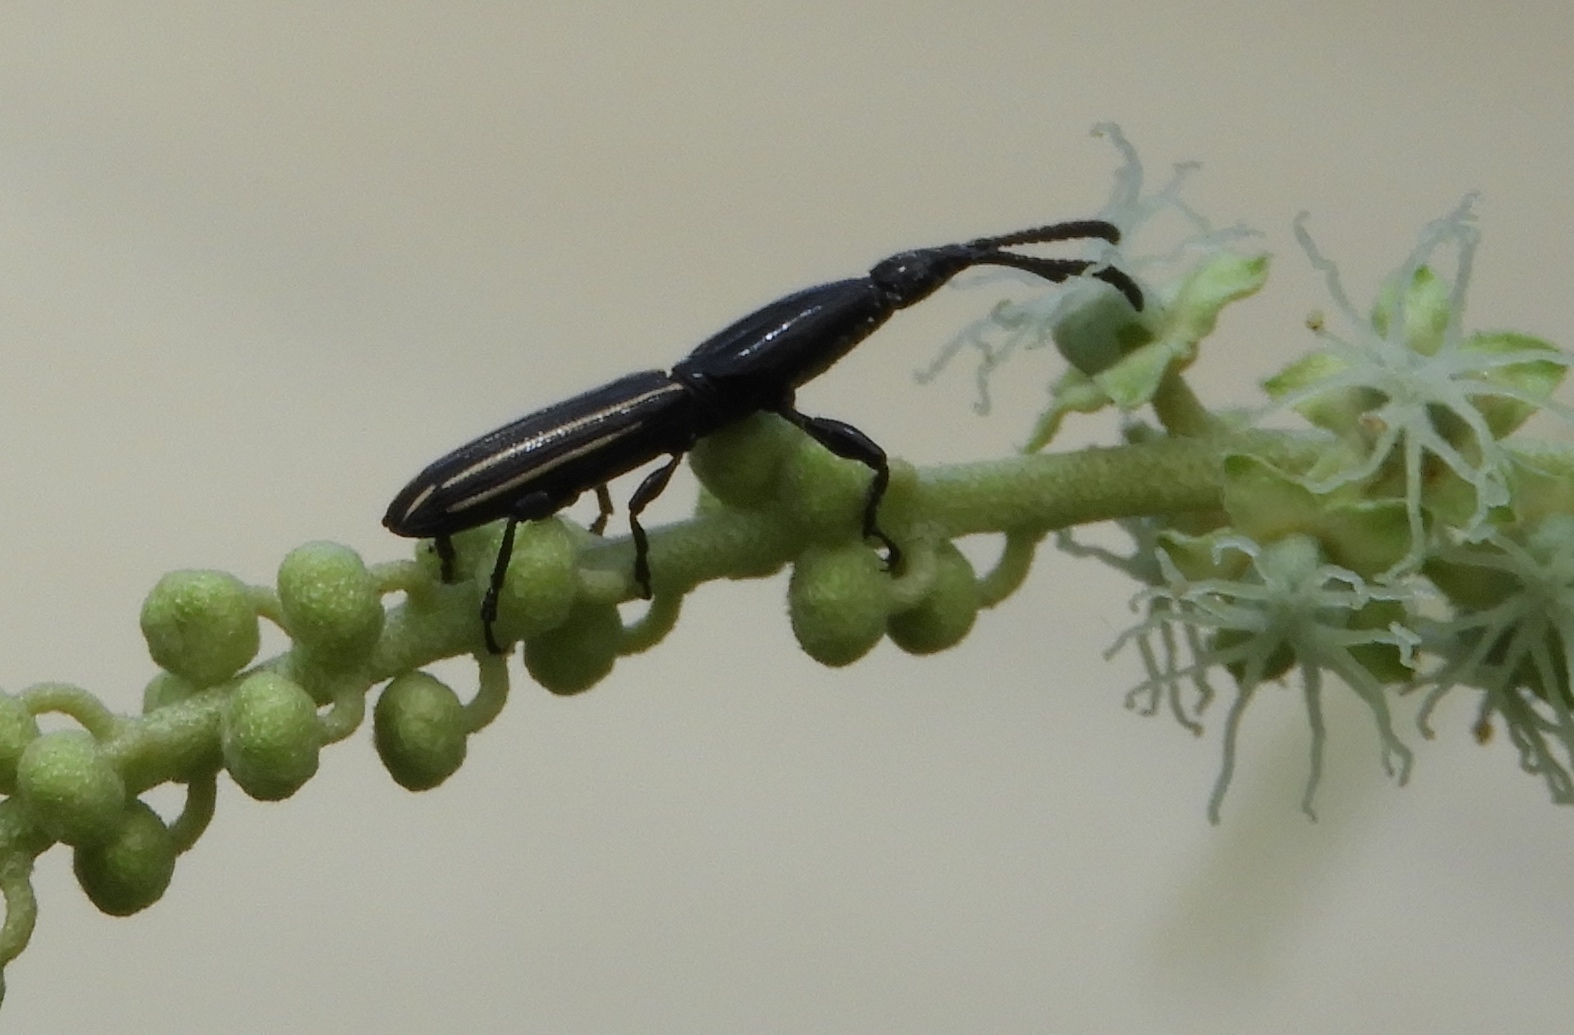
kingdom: Animalia
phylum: Arthropoda
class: Insecta
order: Coleoptera
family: Brentidae
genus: Brentus
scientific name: Brentus
